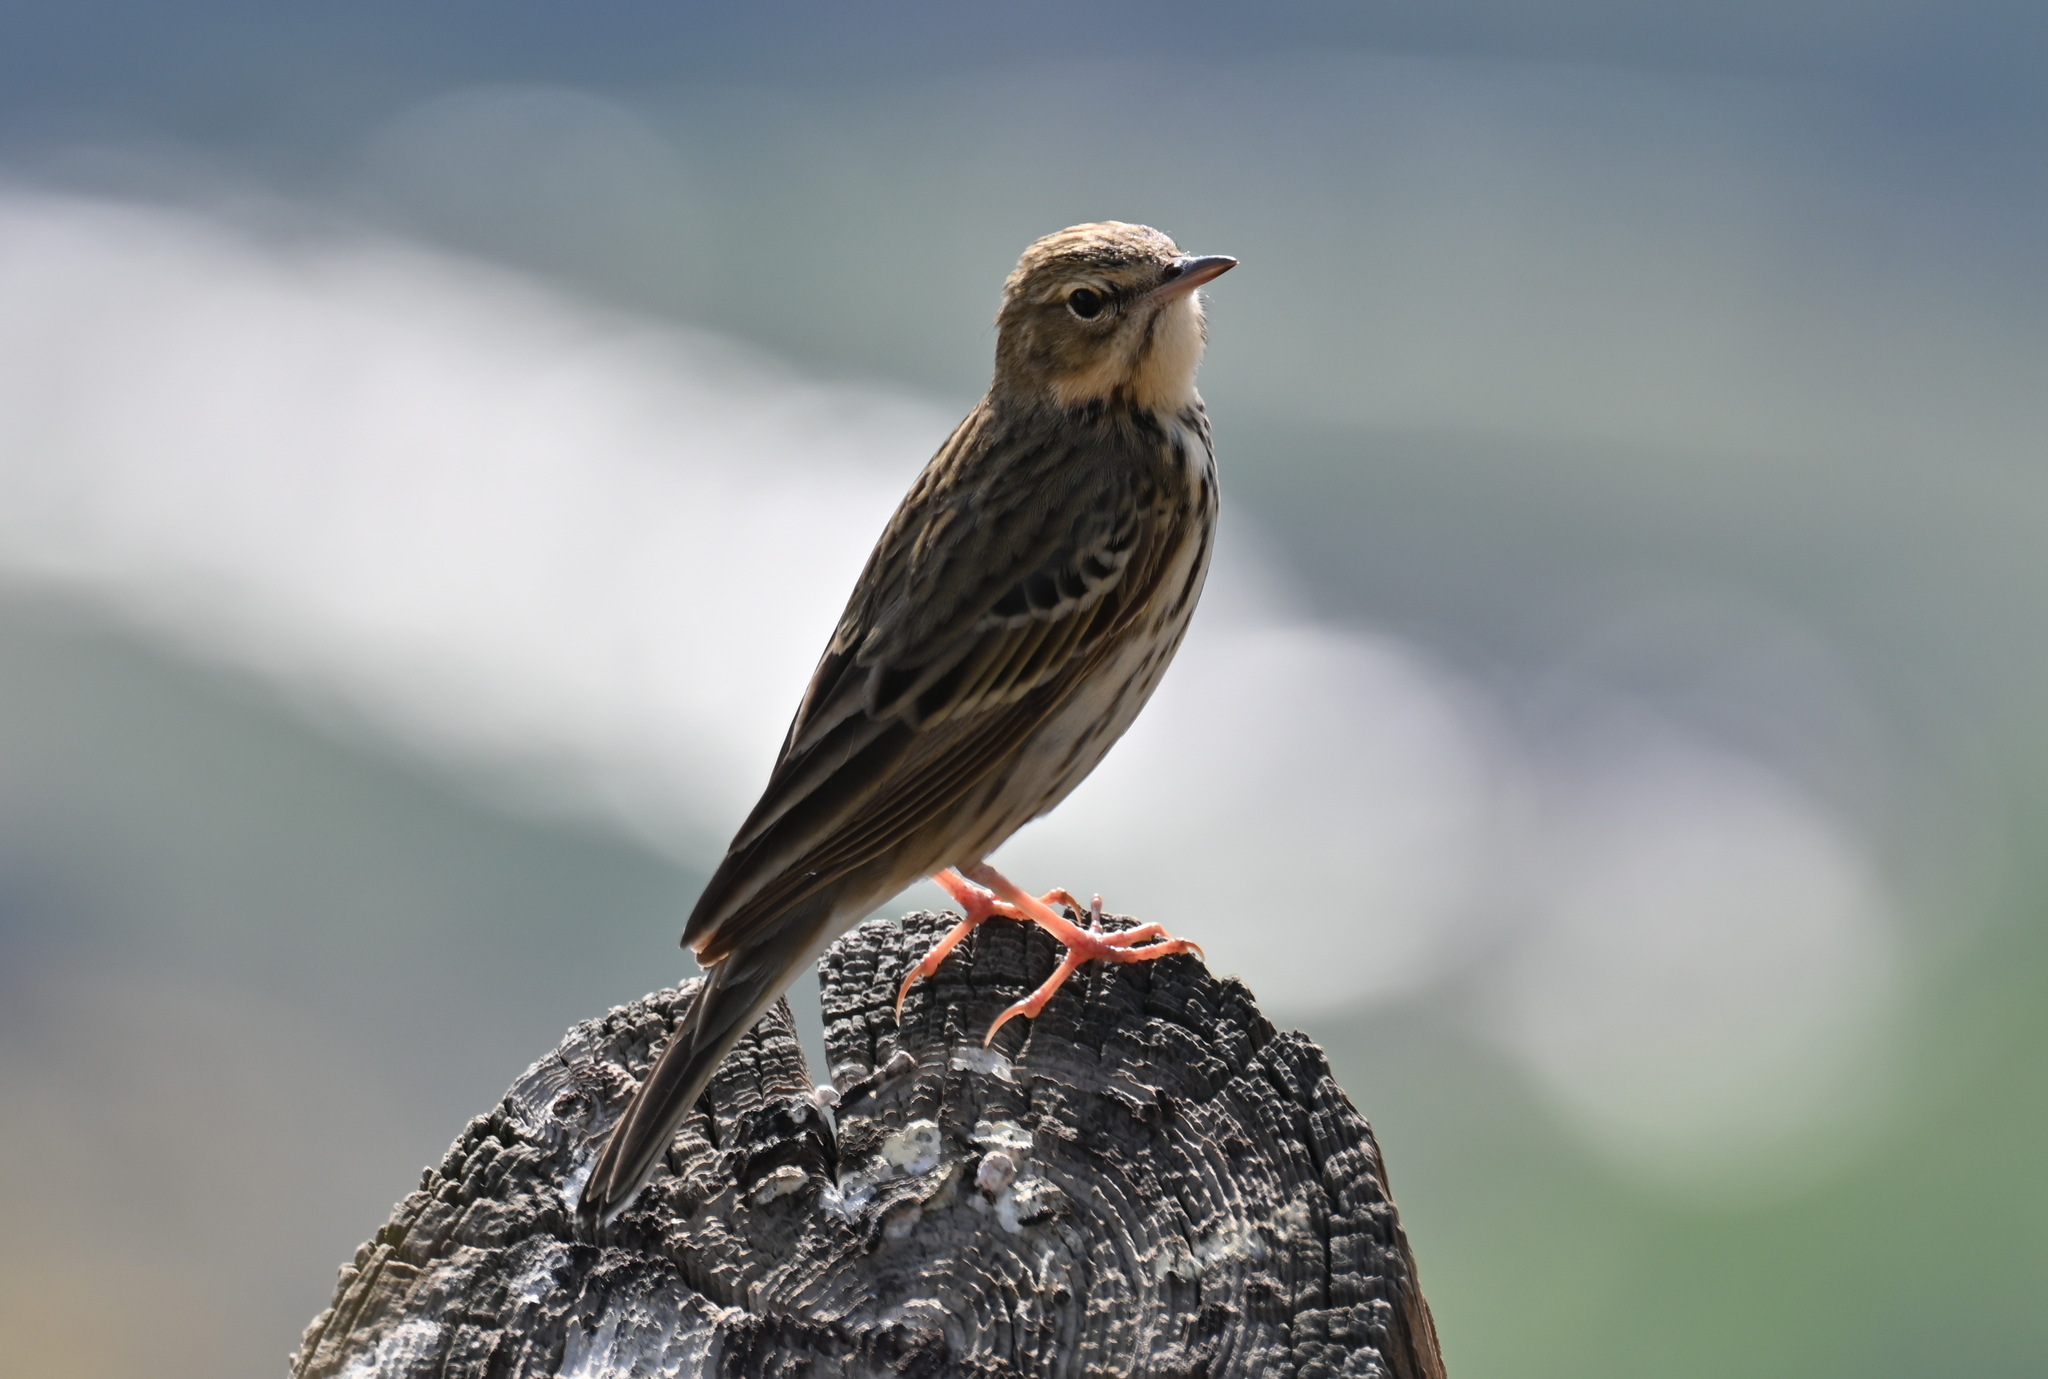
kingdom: Animalia
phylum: Chordata
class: Aves
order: Passeriformes
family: Motacillidae
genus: Anthus
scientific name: Anthus trivialis
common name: Tree pipit
